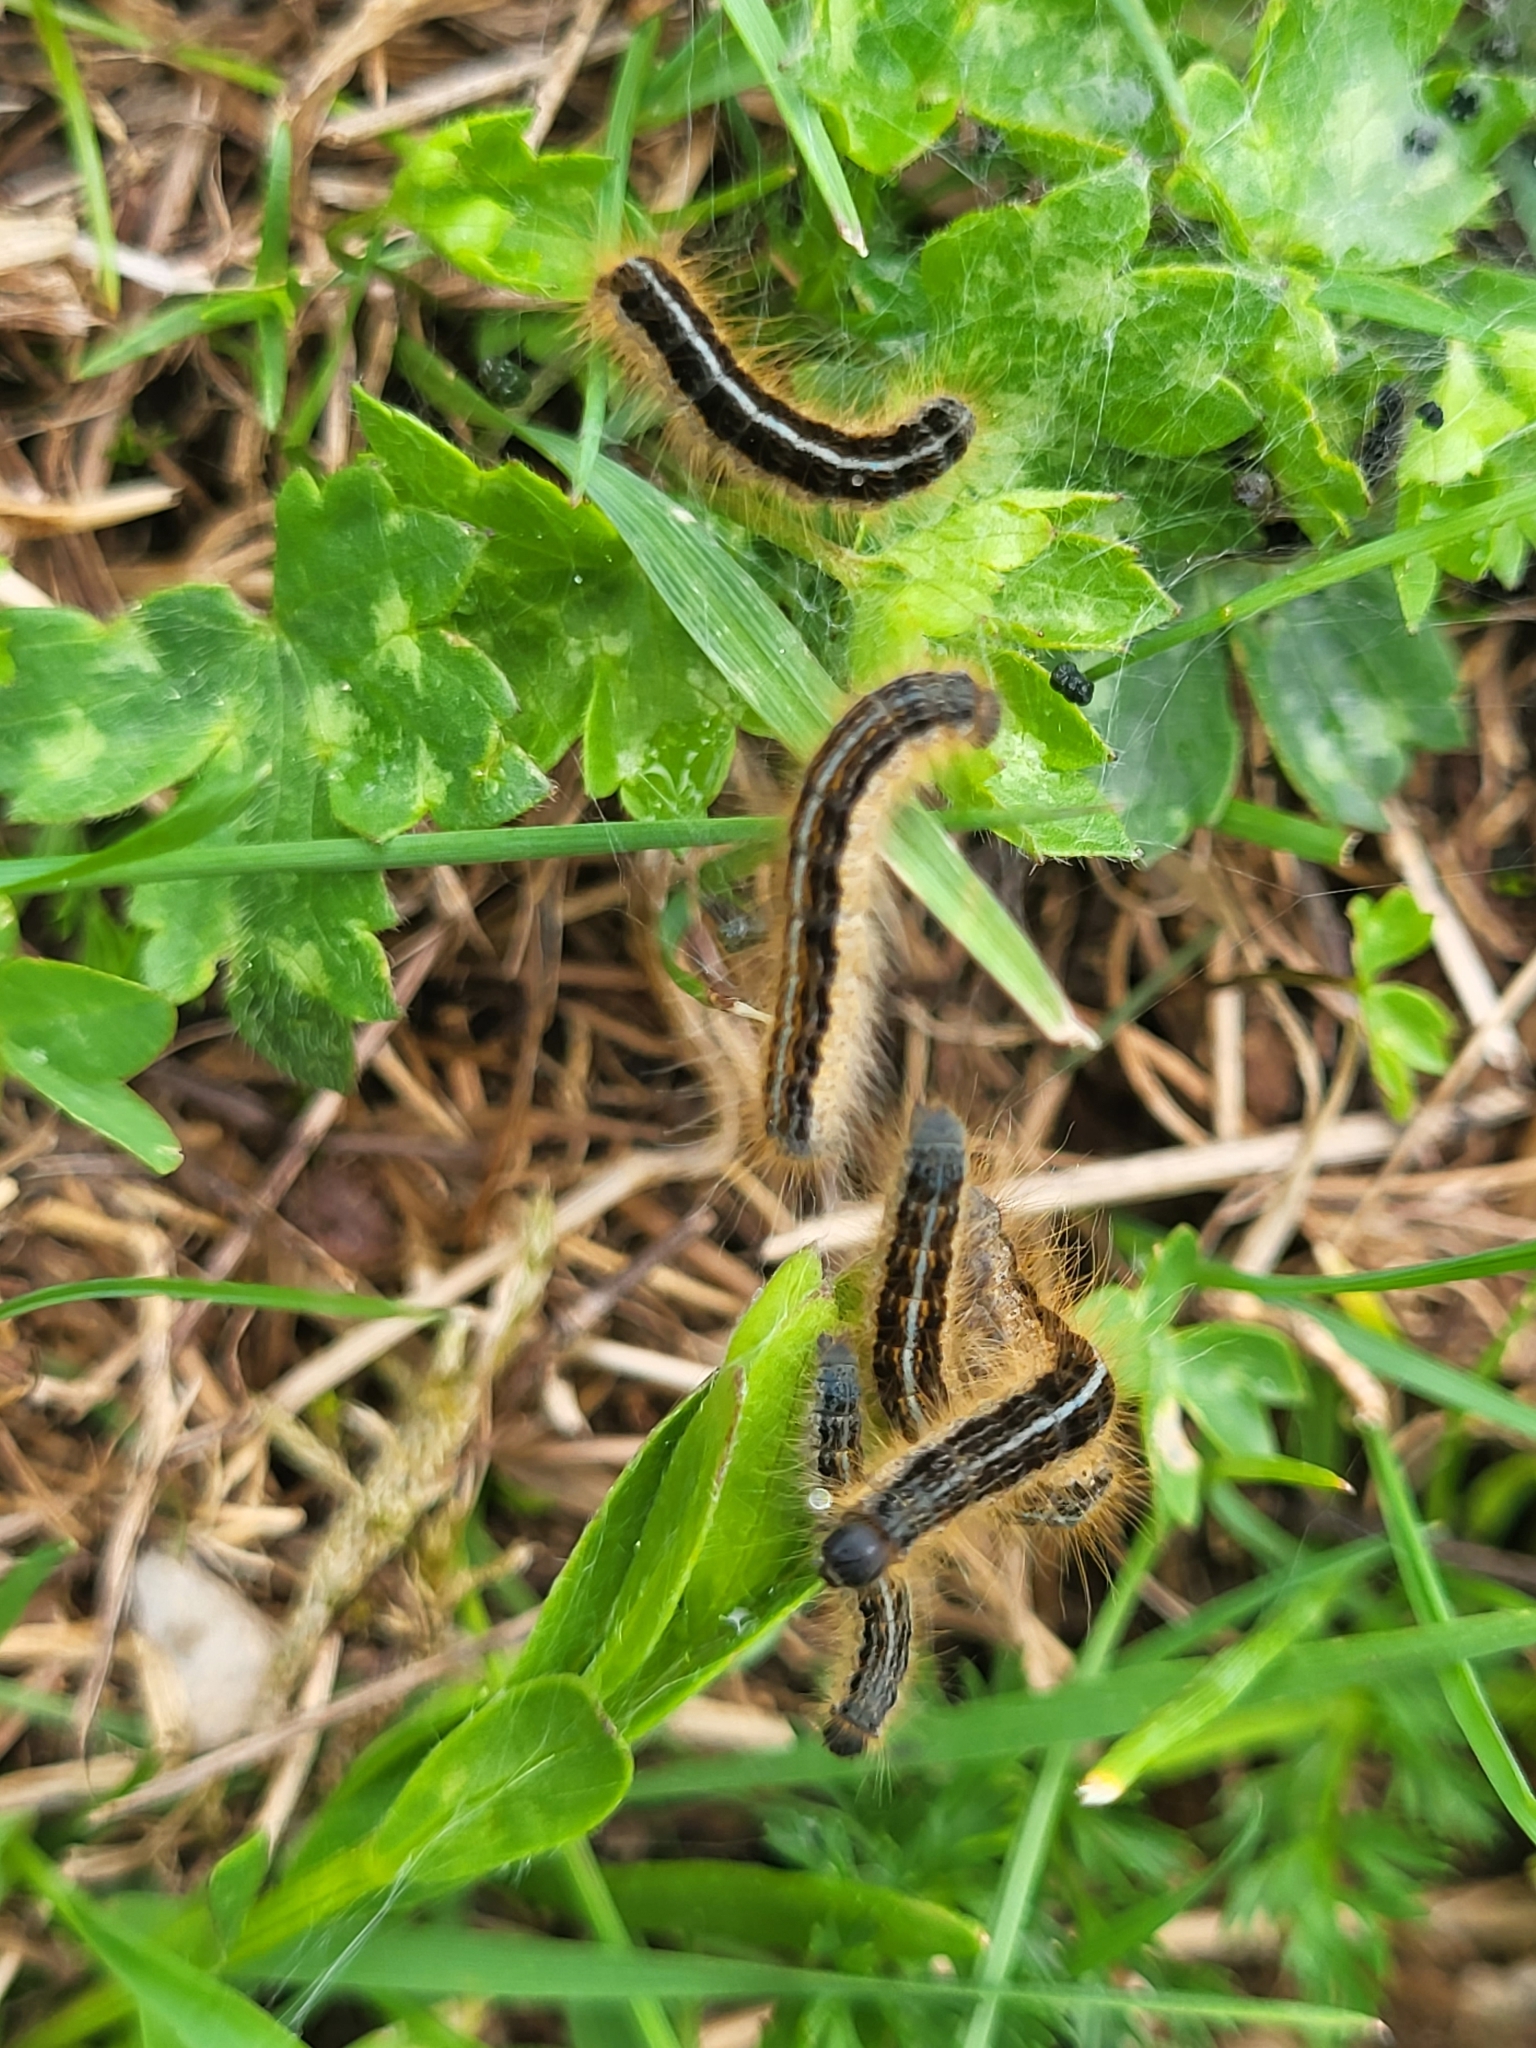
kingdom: Animalia
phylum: Arthropoda
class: Insecta
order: Lepidoptera
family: Lasiocampidae
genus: Malacosoma
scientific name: Malacosoma castrense
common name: Ground lackey
